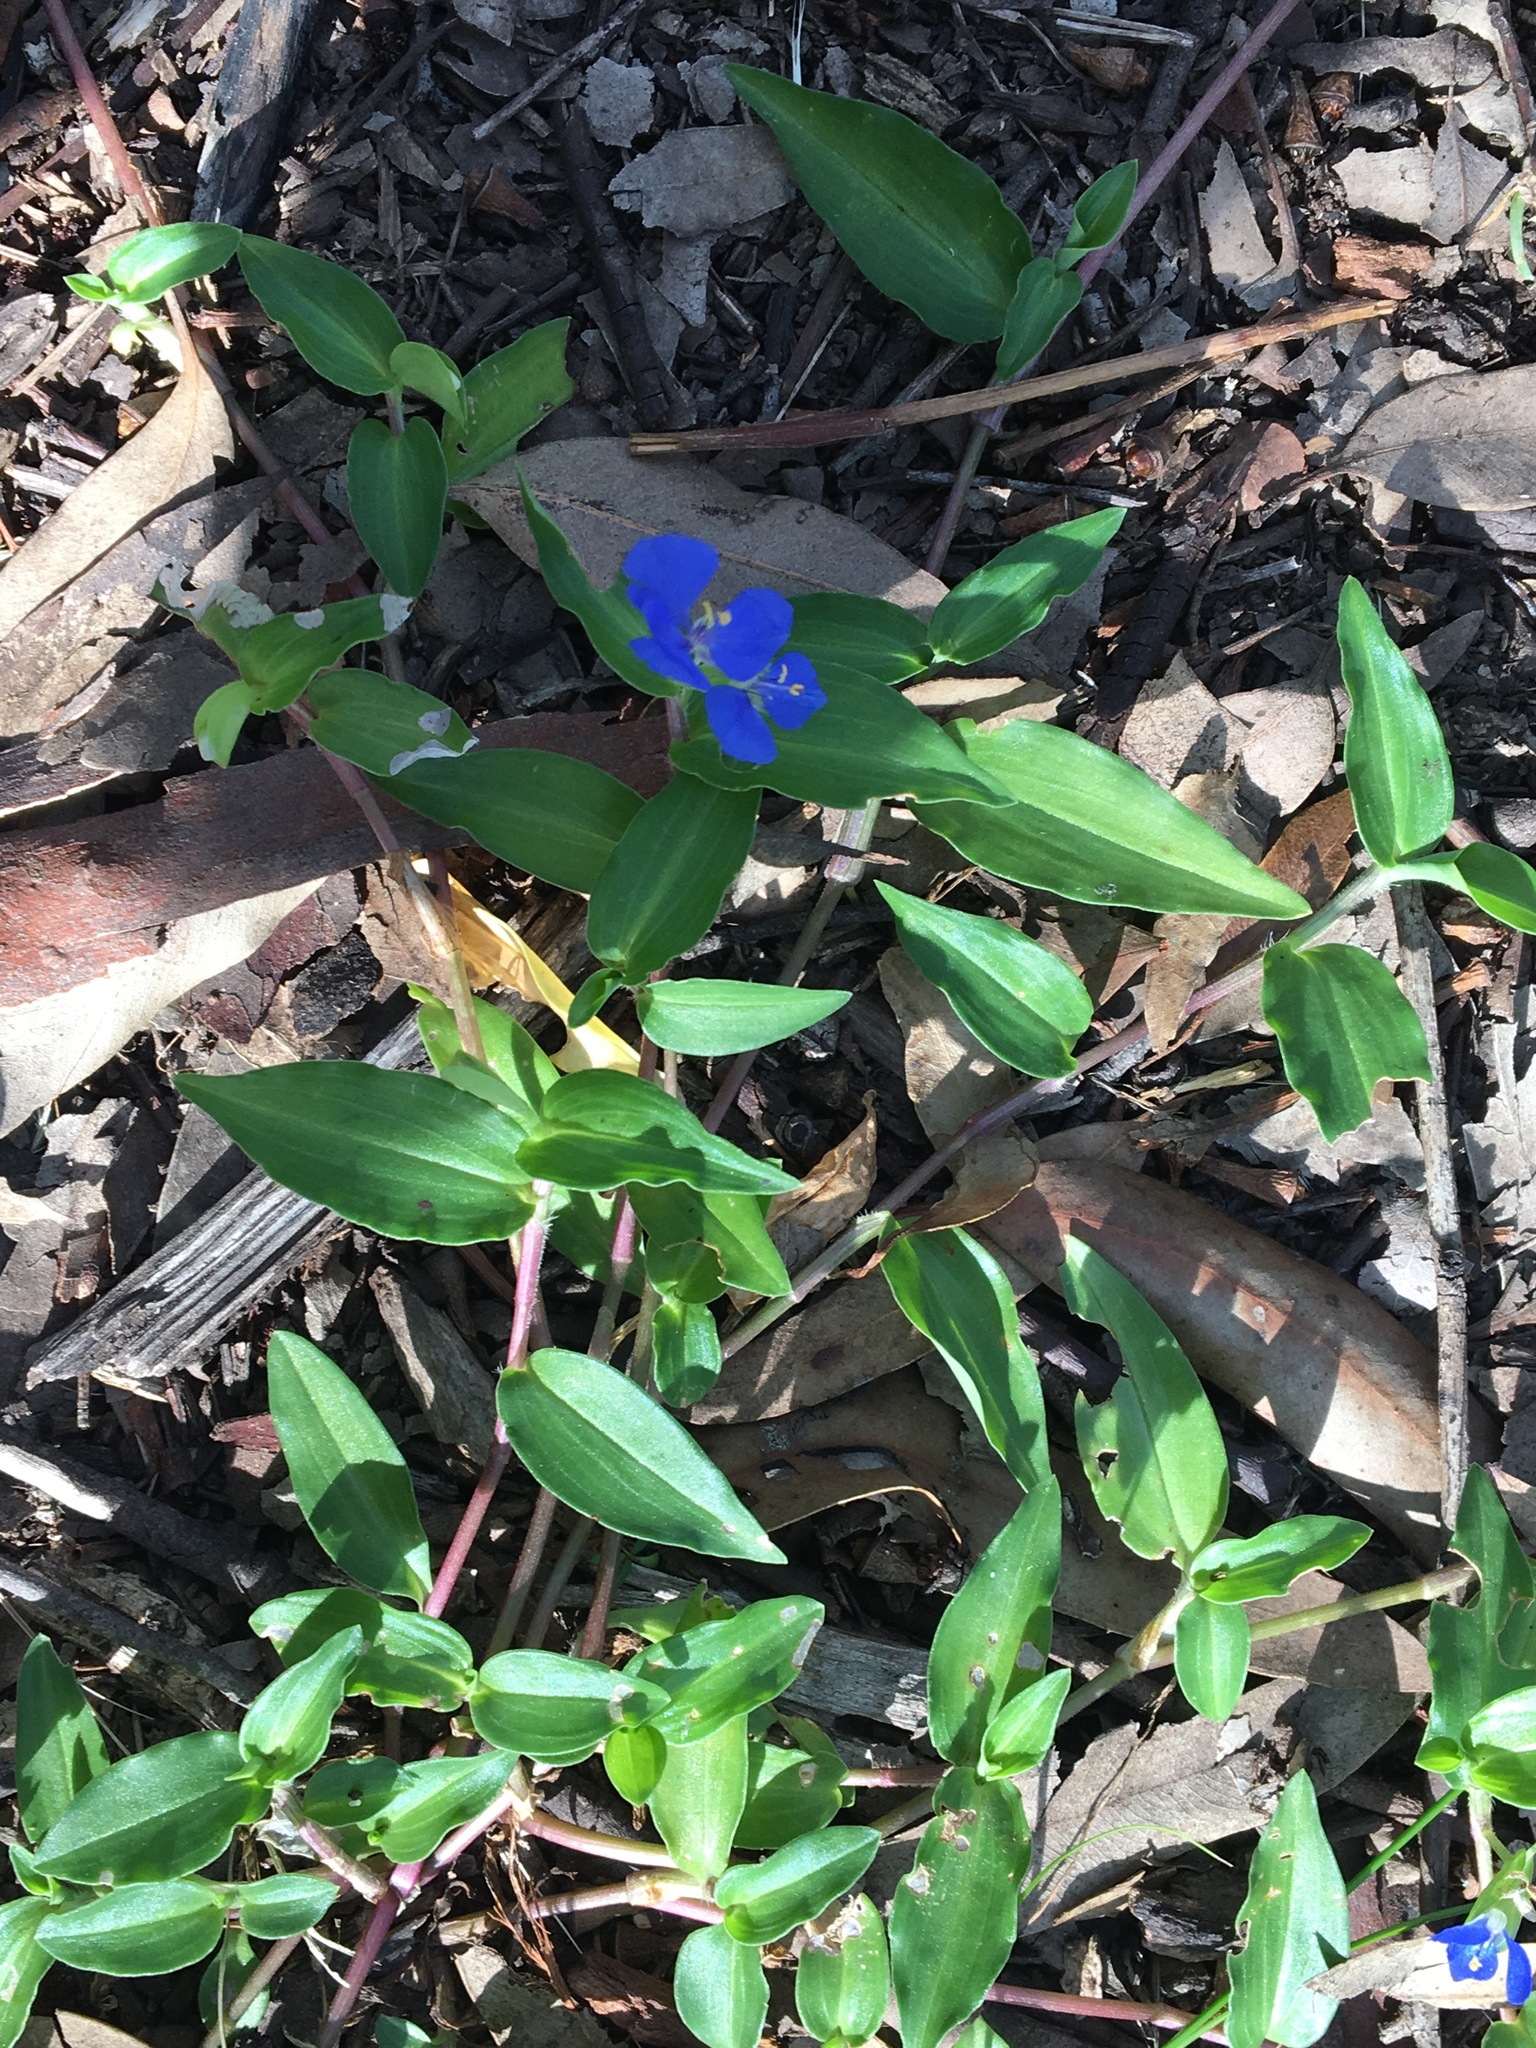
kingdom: Plantae
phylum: Tracheophyta
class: Liliopsida
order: Commelinales
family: Commelinaceae
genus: Commelina
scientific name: Commelina cyanea
